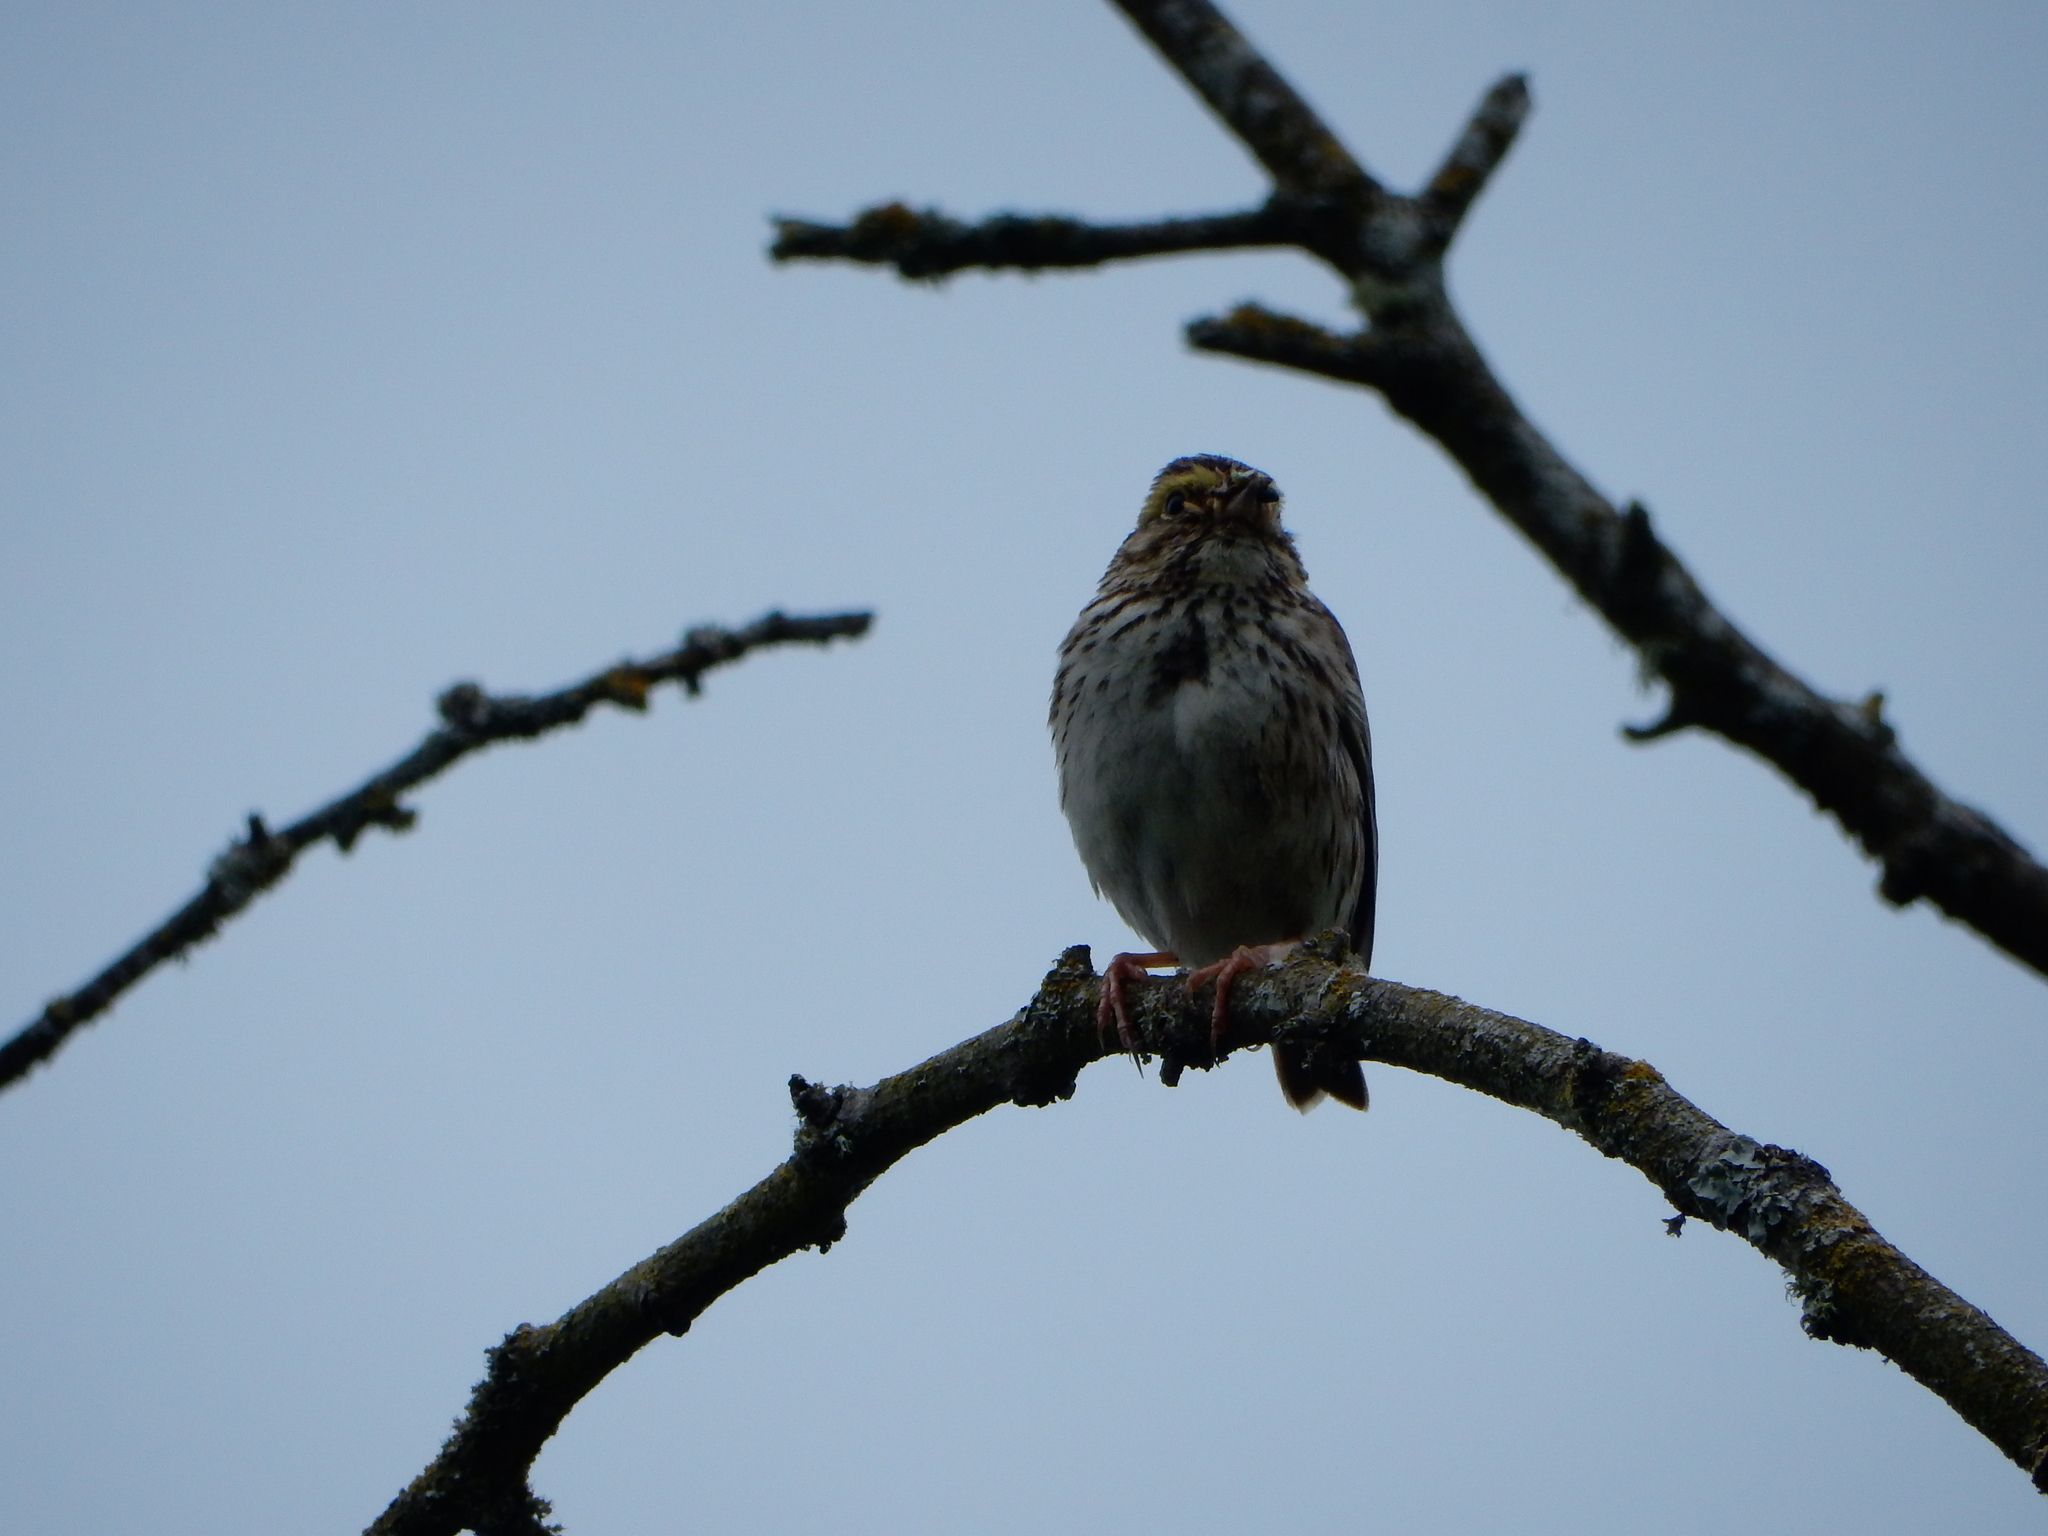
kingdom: Animalia
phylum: Chordata
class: Aves
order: Passeriformes
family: Passerellidae
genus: Passerculus
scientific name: Passerculus sandwichensis
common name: Savannah sparrow
